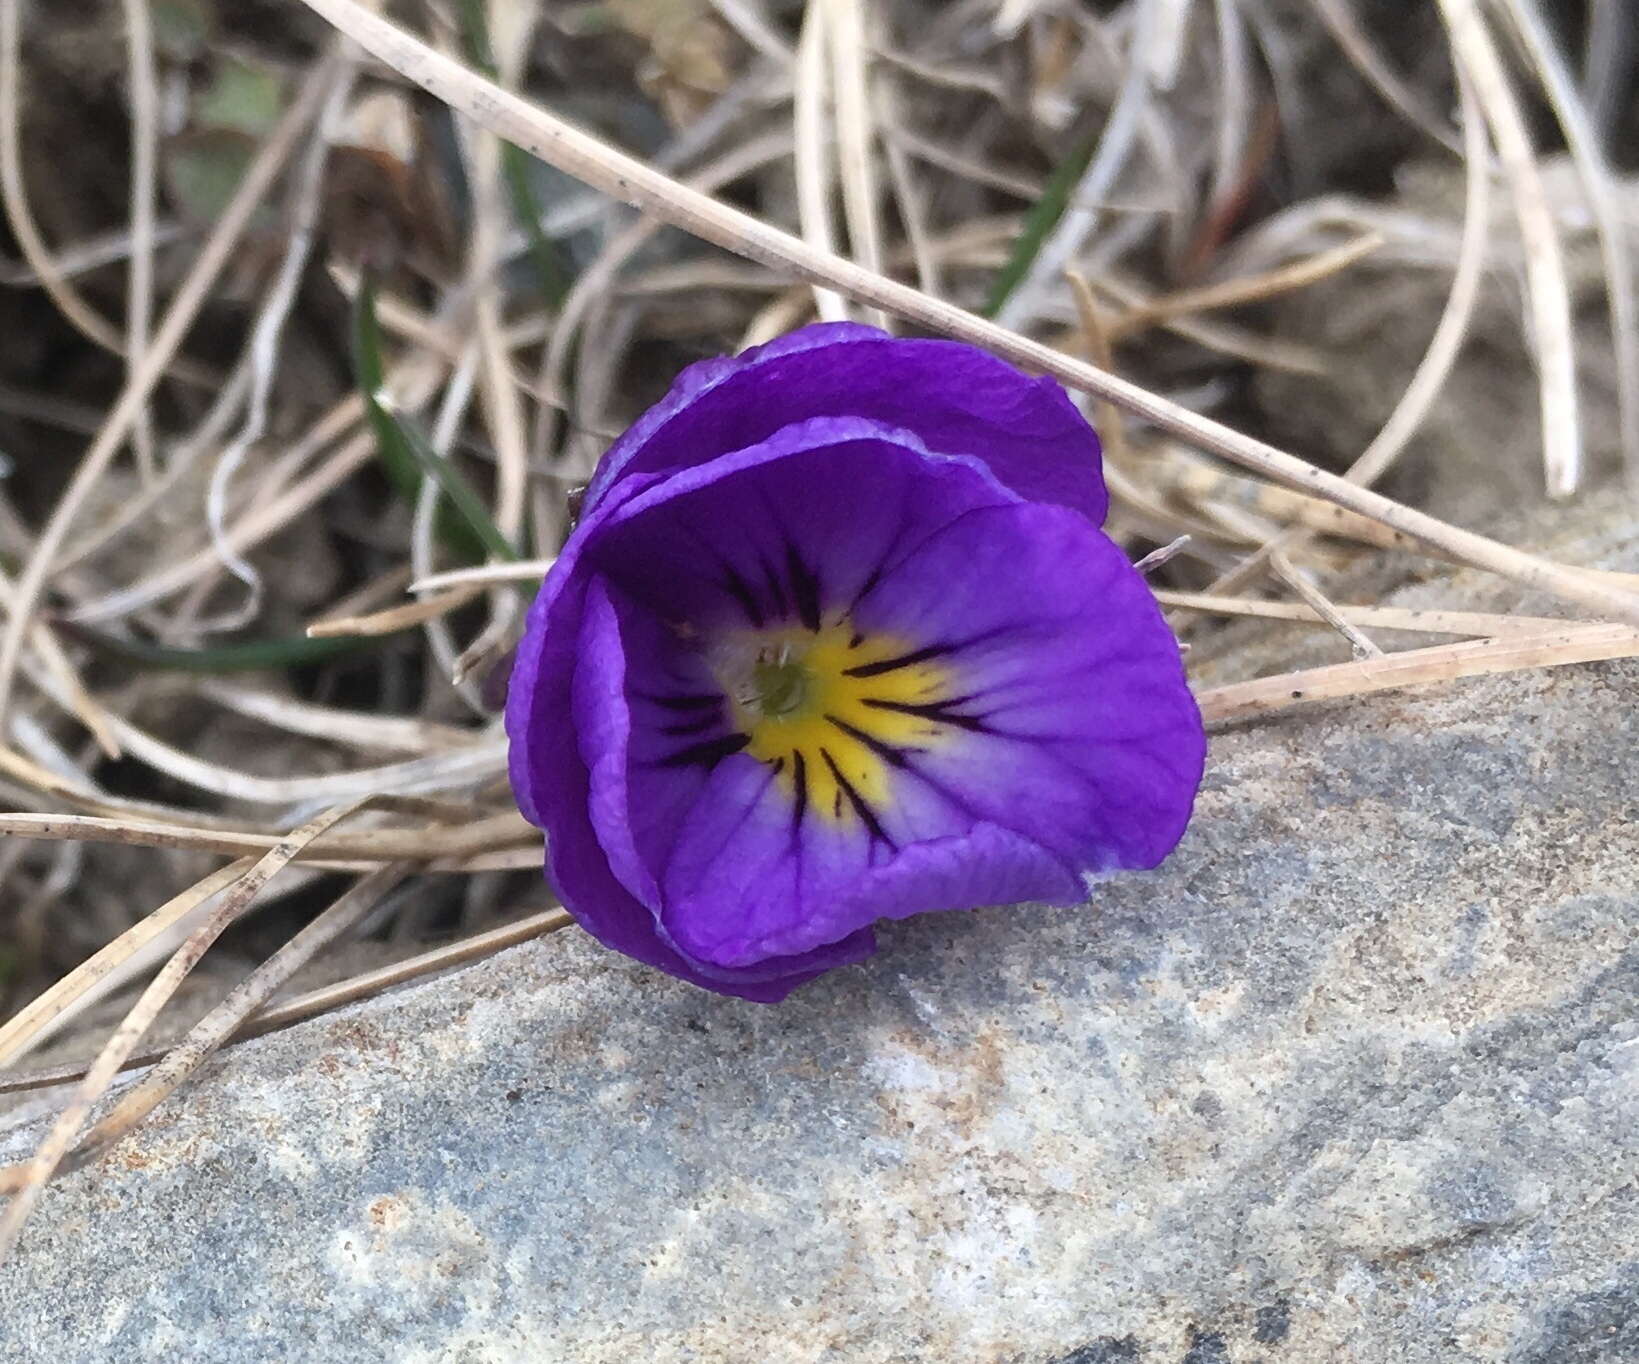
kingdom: Plantae
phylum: Tracheophyta
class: Magnoliopsida
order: Malpighiales
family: Violaceae
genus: Viola
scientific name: Viola calcarata
